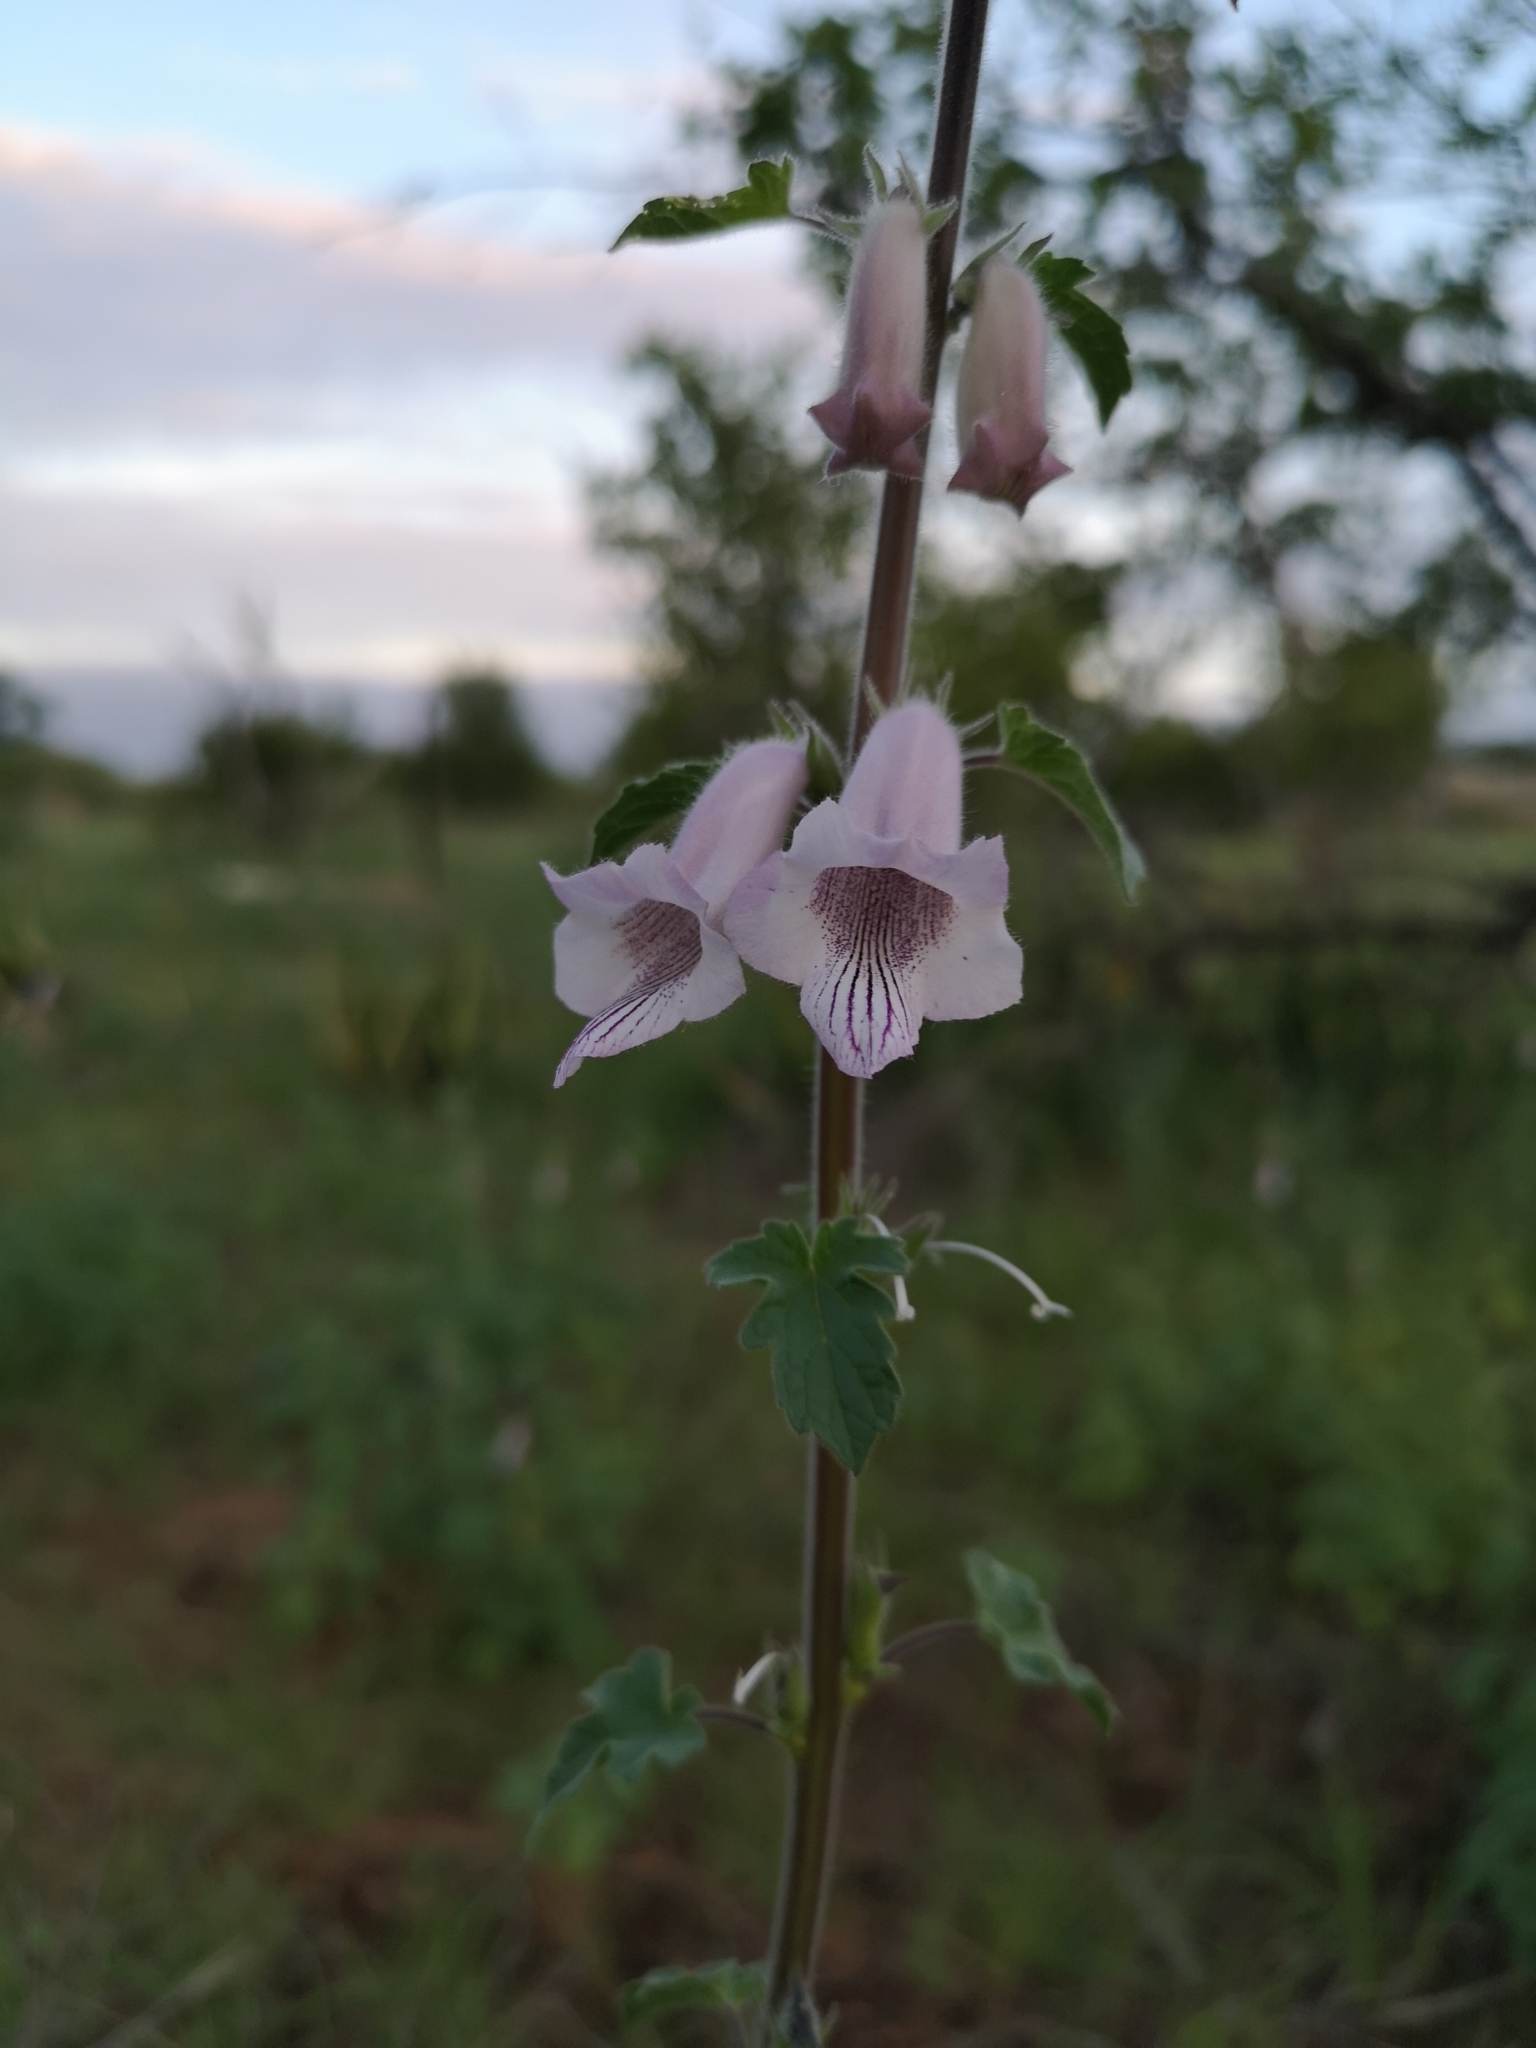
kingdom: Plantae
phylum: Tracheophyta
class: Magnoliopsida
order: Lamiales
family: Pedaliaceae
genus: Sesamum
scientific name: Sesamum trilobum
